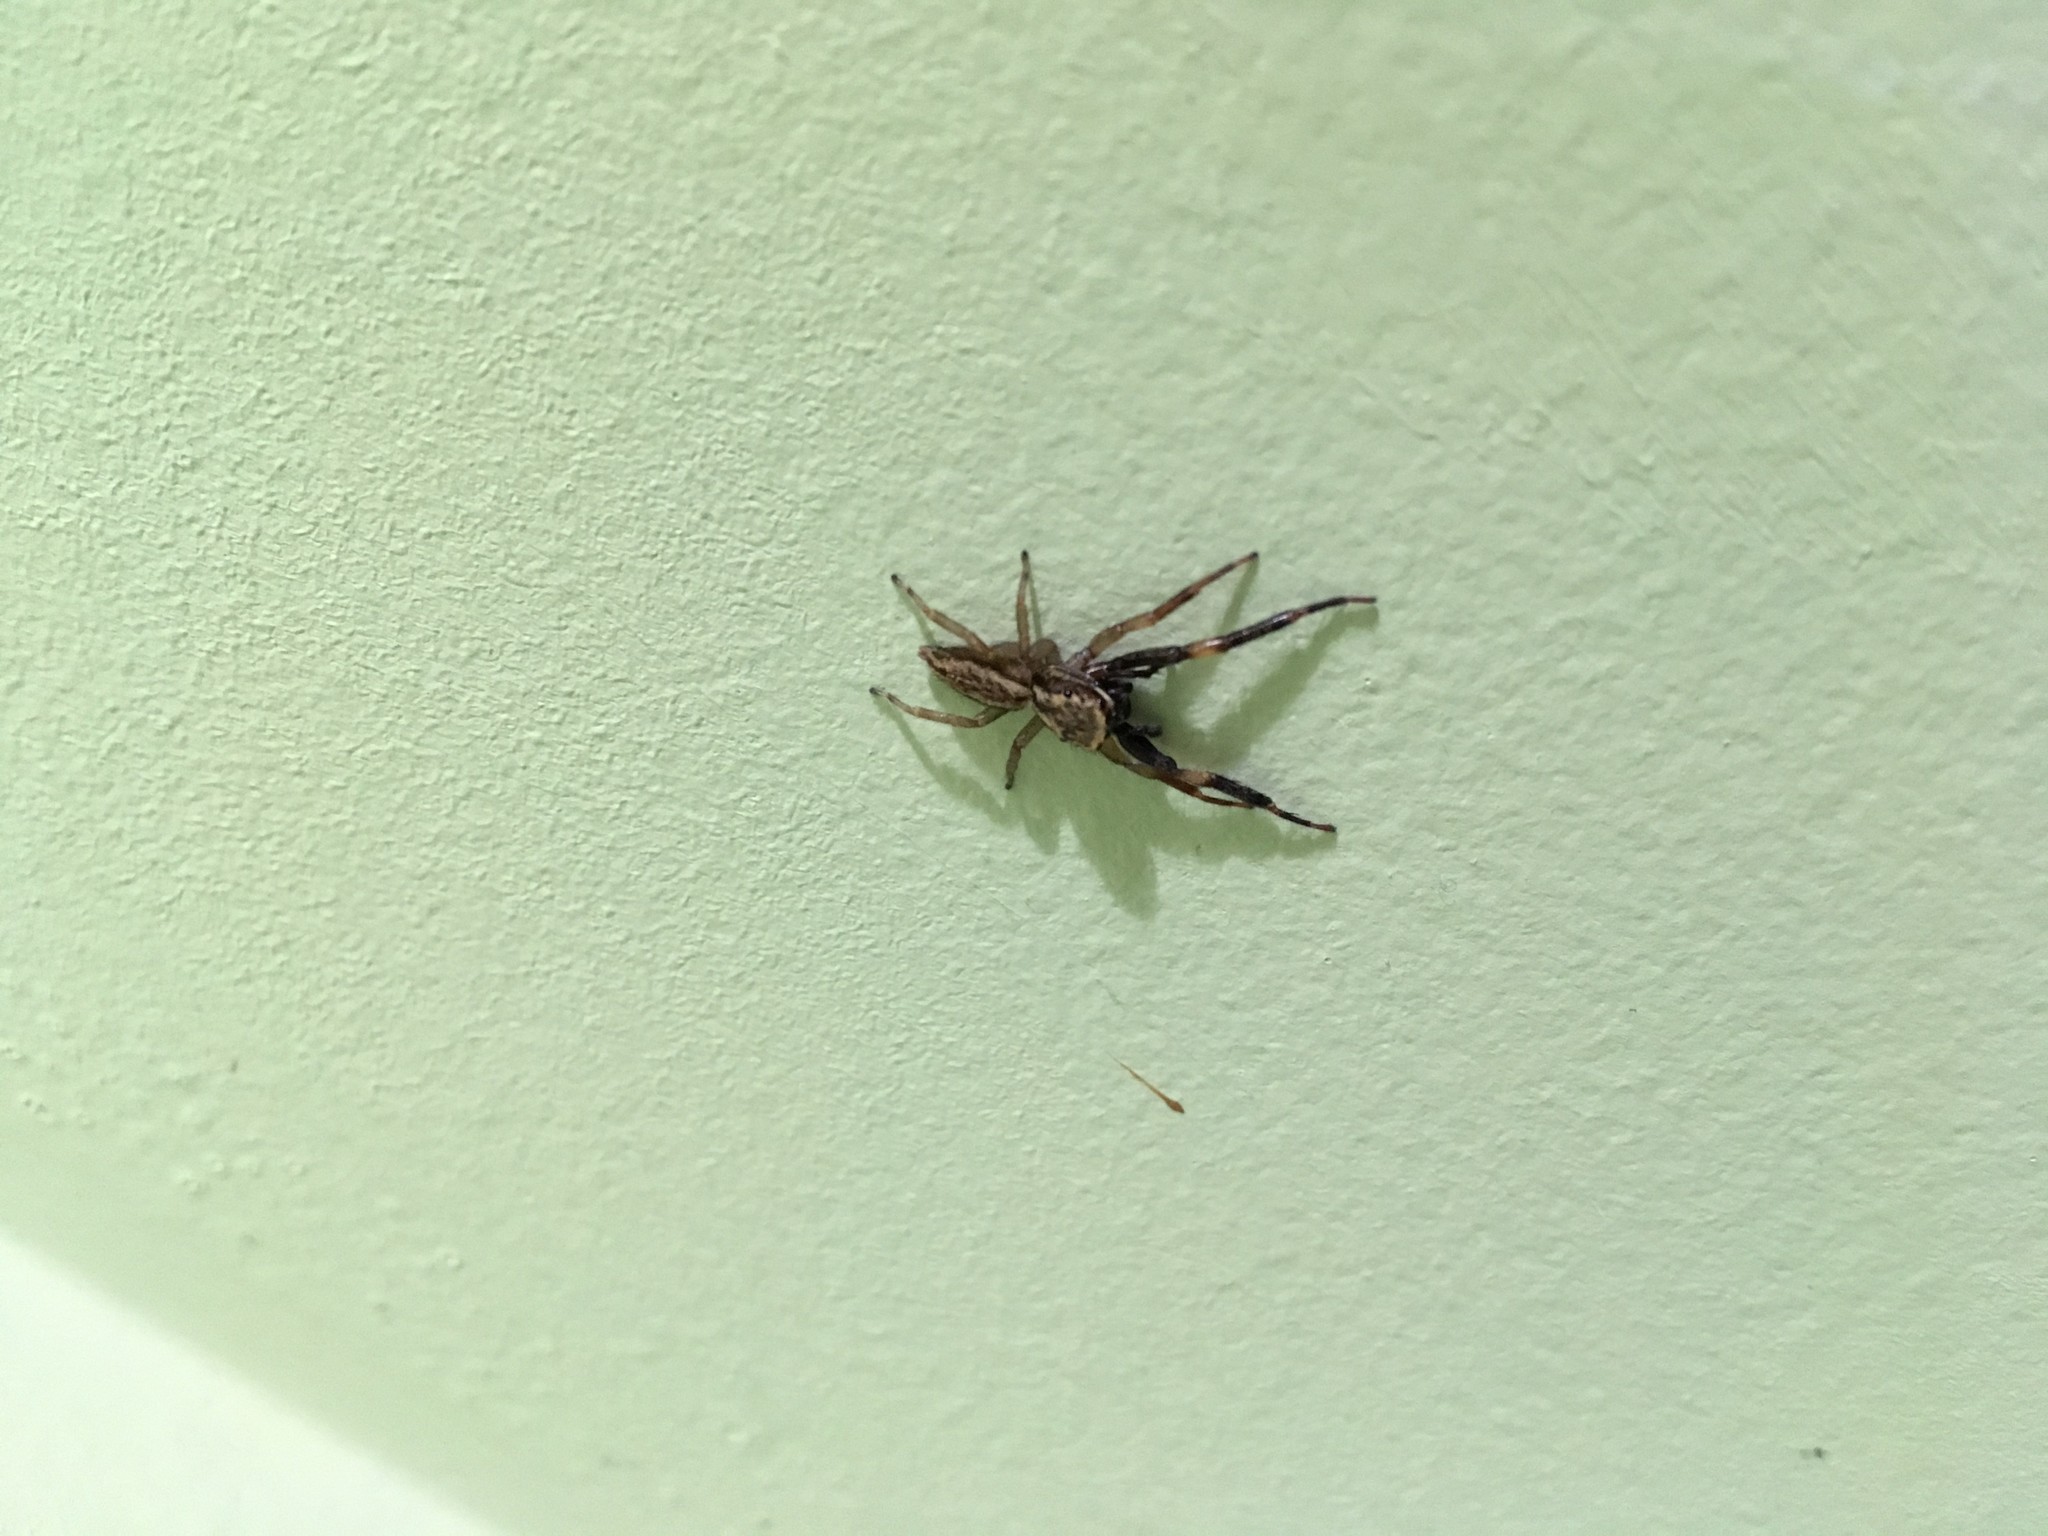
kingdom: Animalia
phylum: Arthropoda
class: Arachnida
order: Araneae
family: Salticidae
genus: Trite
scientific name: Trite auricoma
